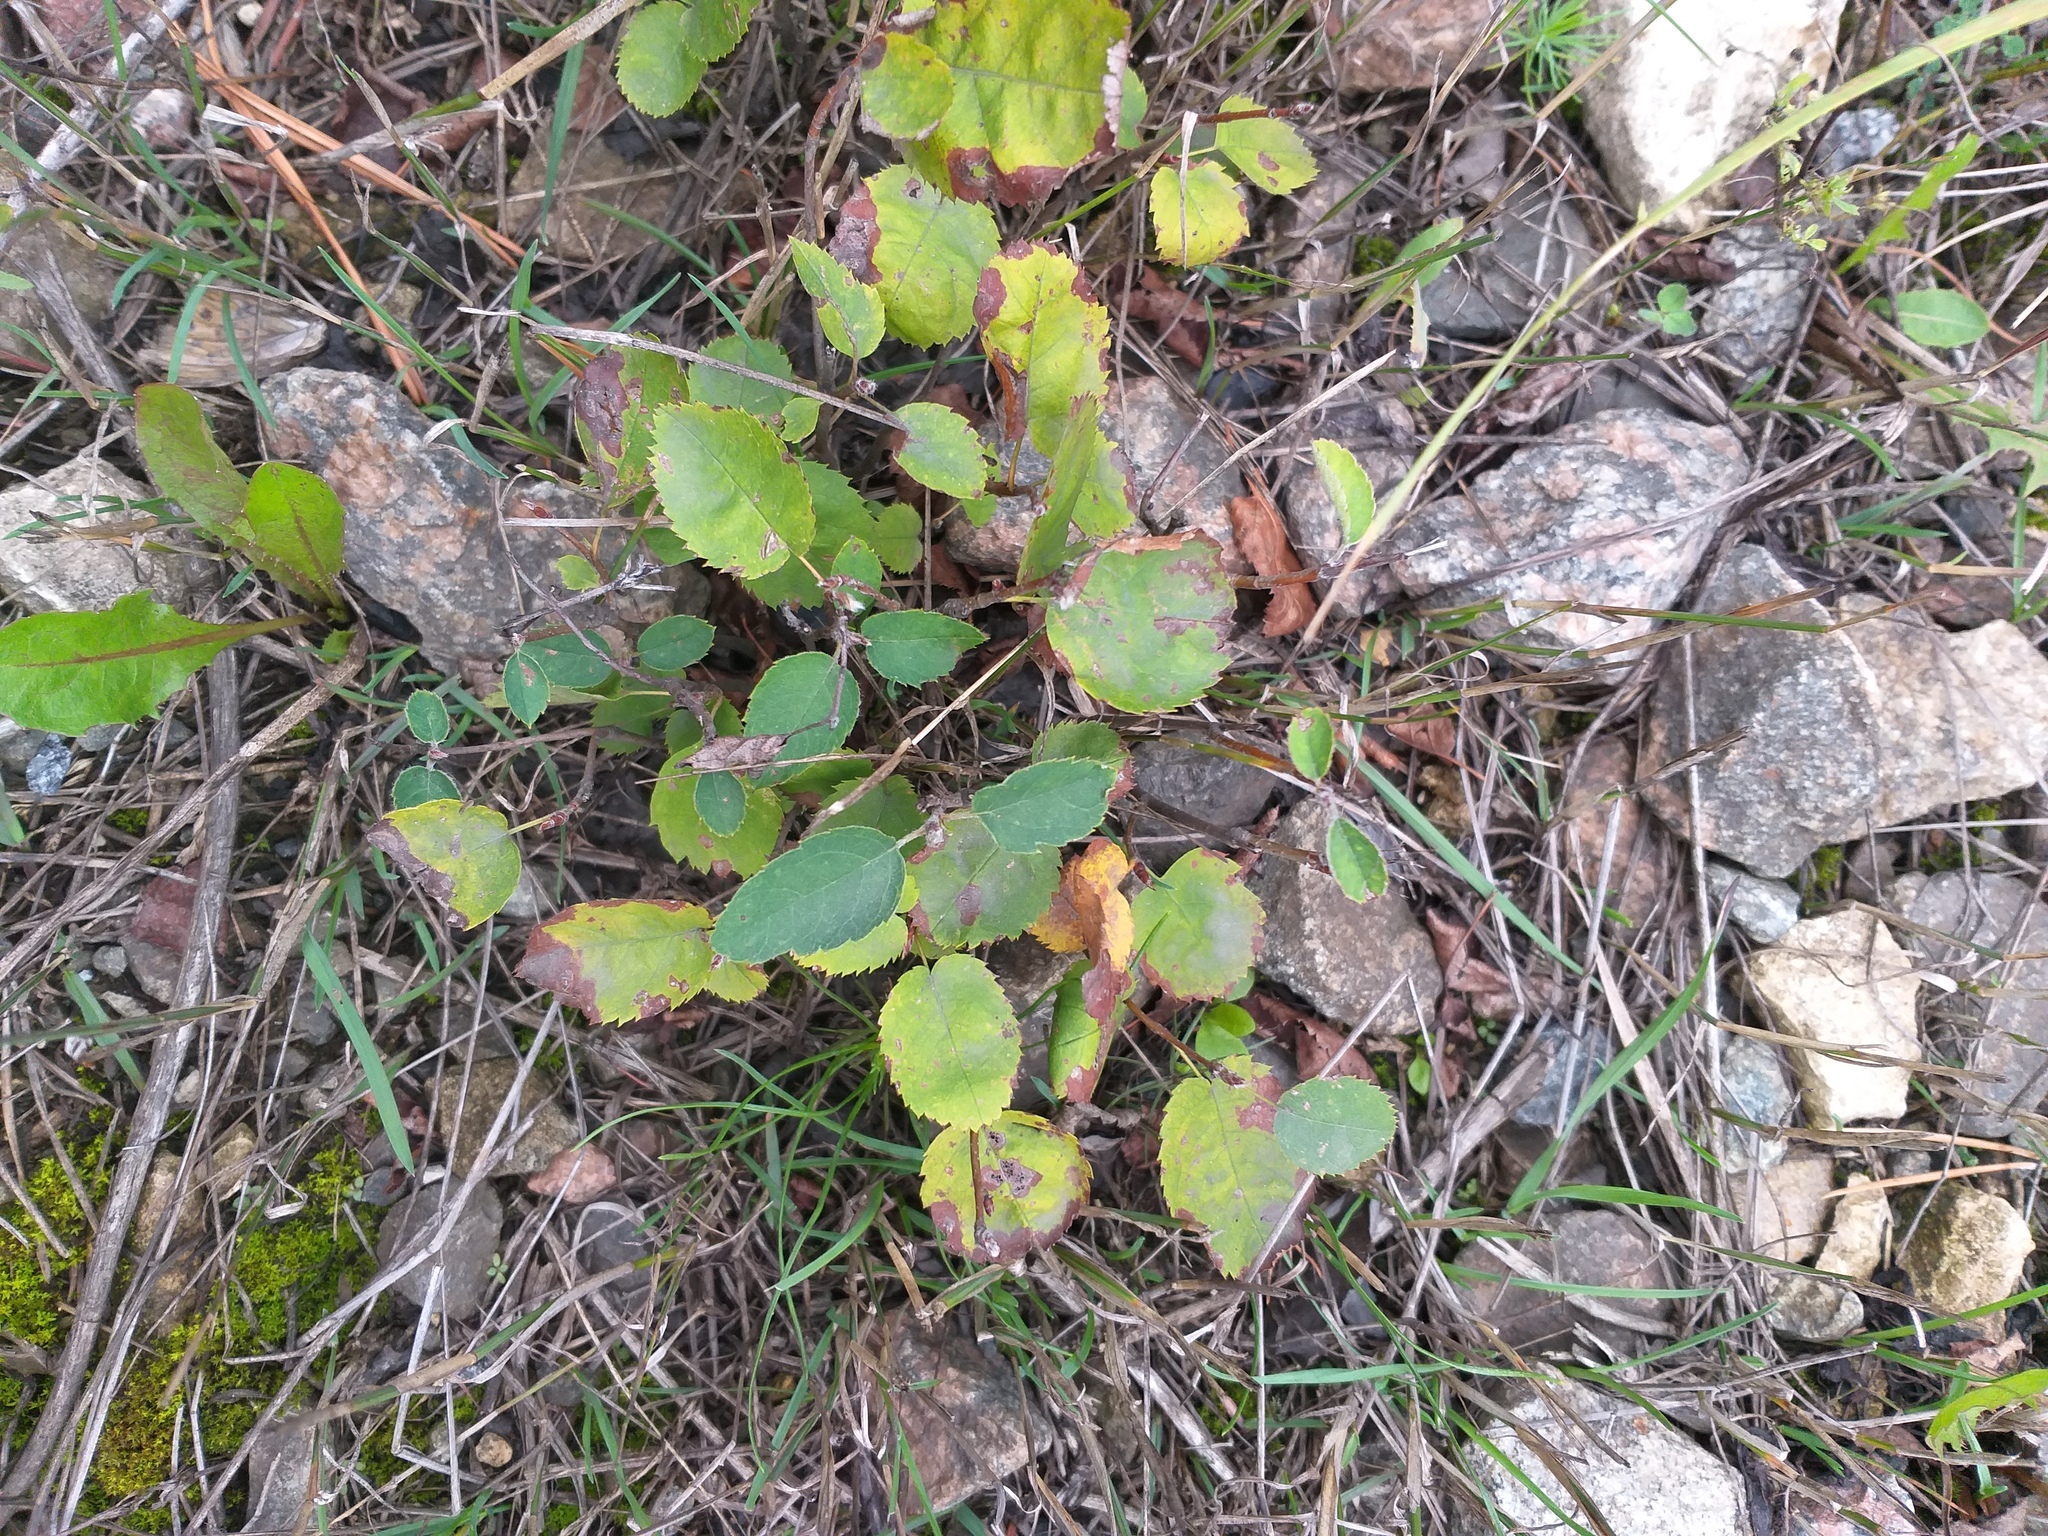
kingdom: Plantae
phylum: Tracheophyta
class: Magnoliopsida
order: Rosales
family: Rosaceae
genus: Amelanchier
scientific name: Amelanchier
